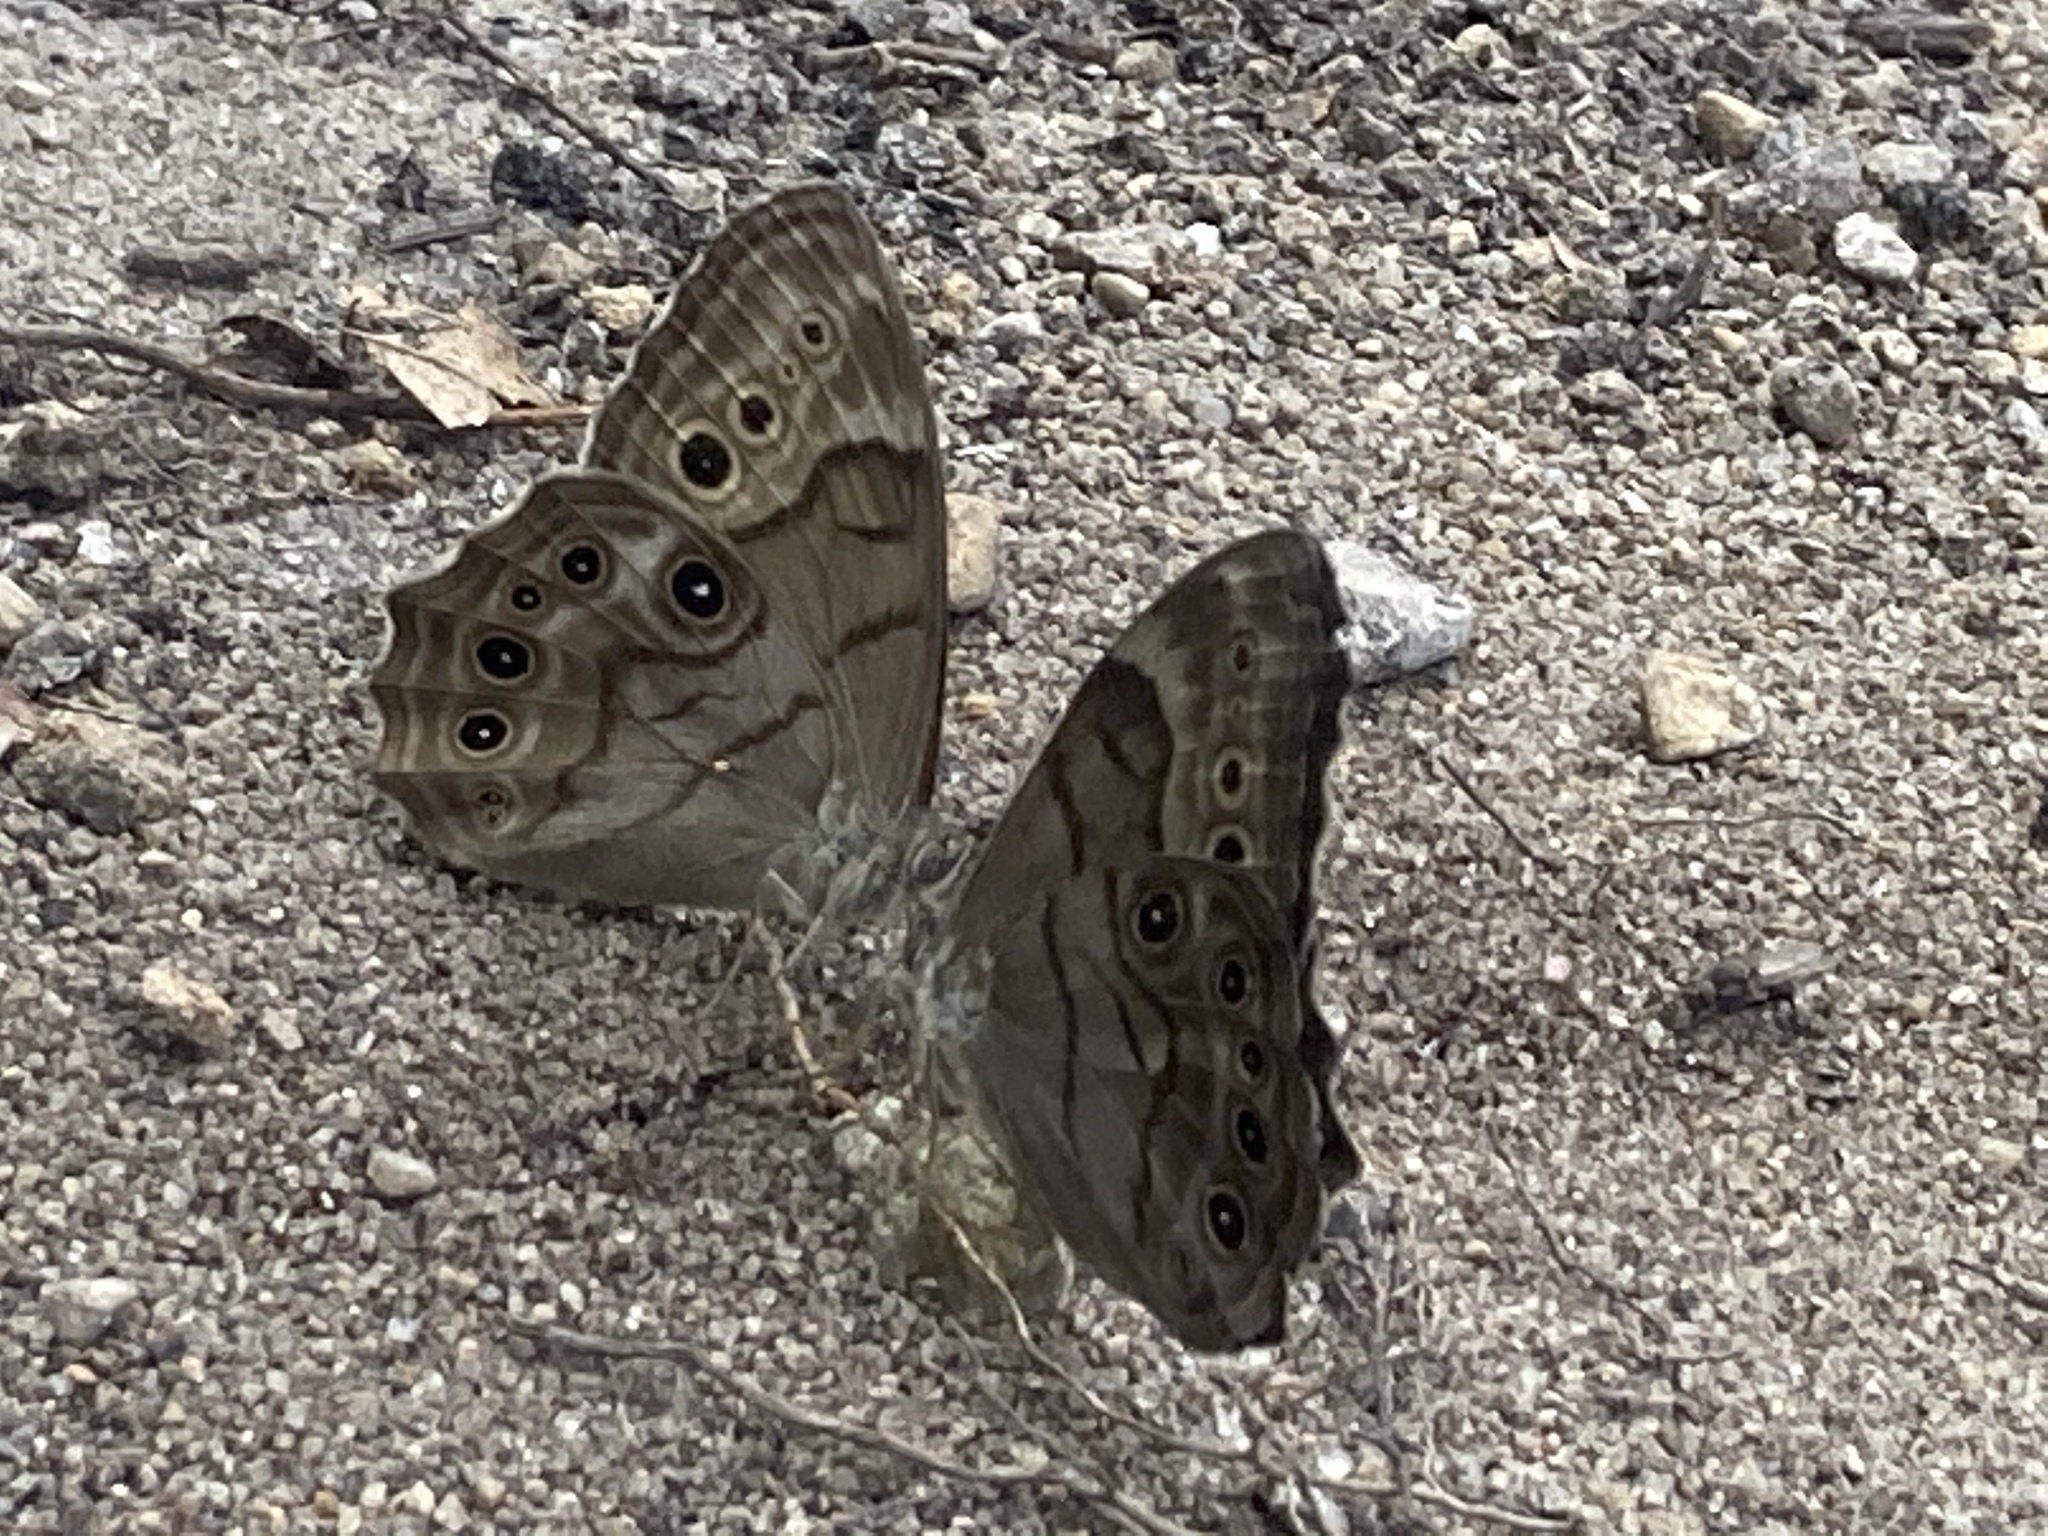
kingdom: Animalia
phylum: Arthropoda
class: Insecta
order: Lepidoptera
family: Nymphalidae
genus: Lethe
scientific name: Lethe anthedon
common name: Northern pearly-eye
